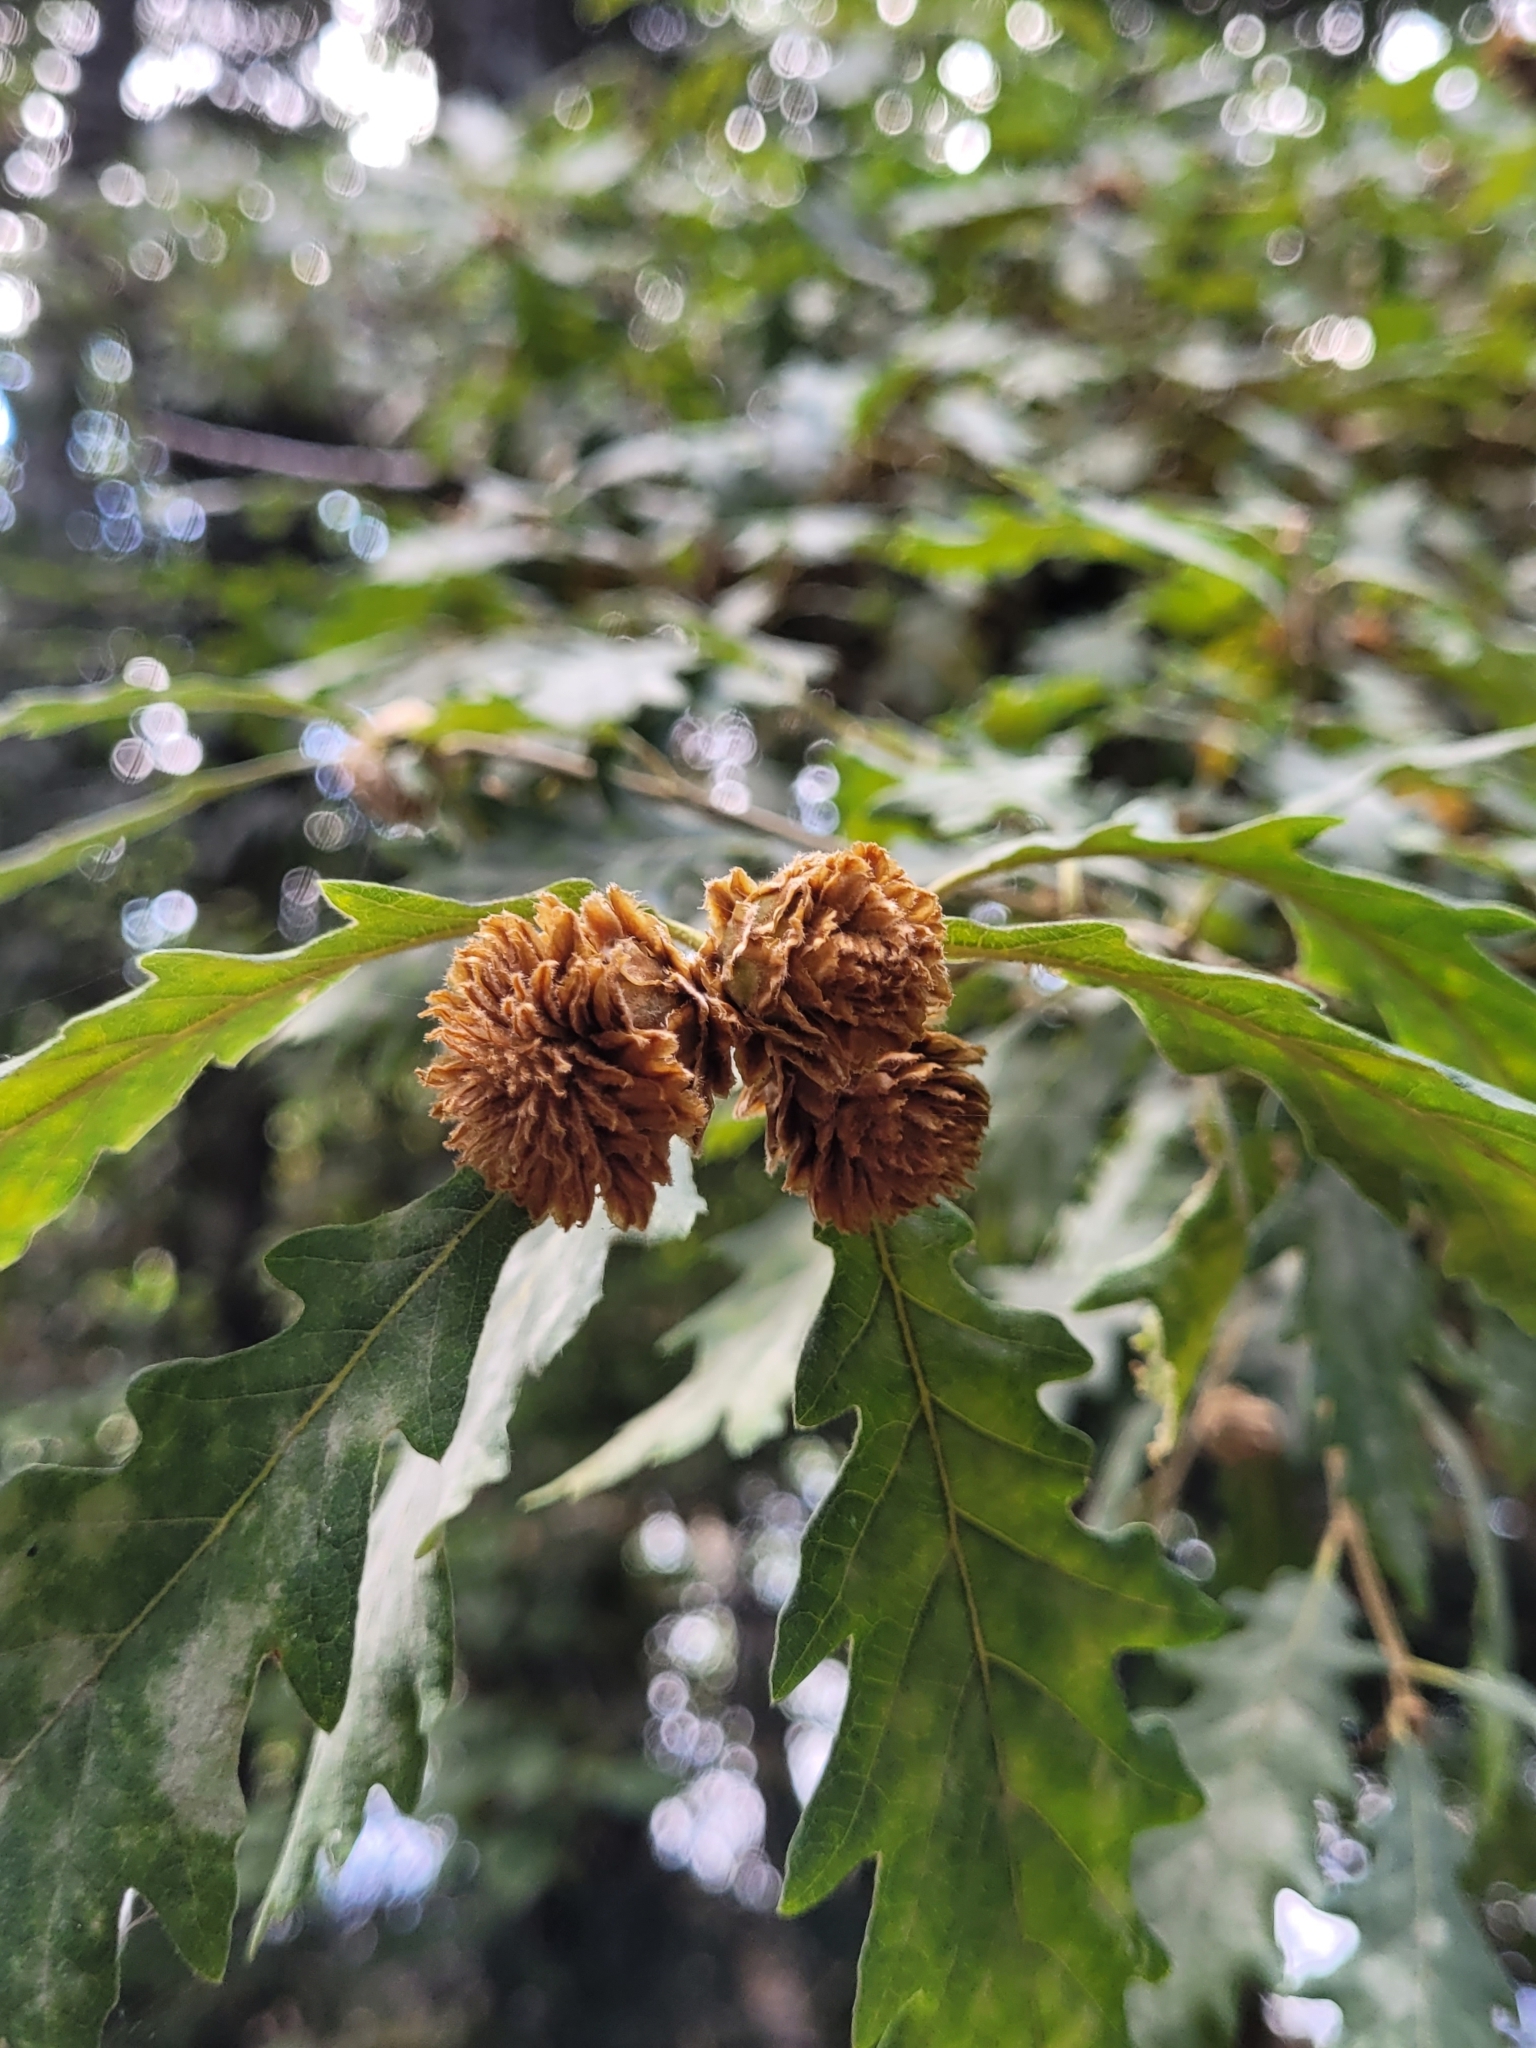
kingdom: Animalia
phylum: Arthropoda
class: Insecta
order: Hymenoptera
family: Cynipidae
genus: Andricus
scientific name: Andricus foecundatrix
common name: Artichoke gall
